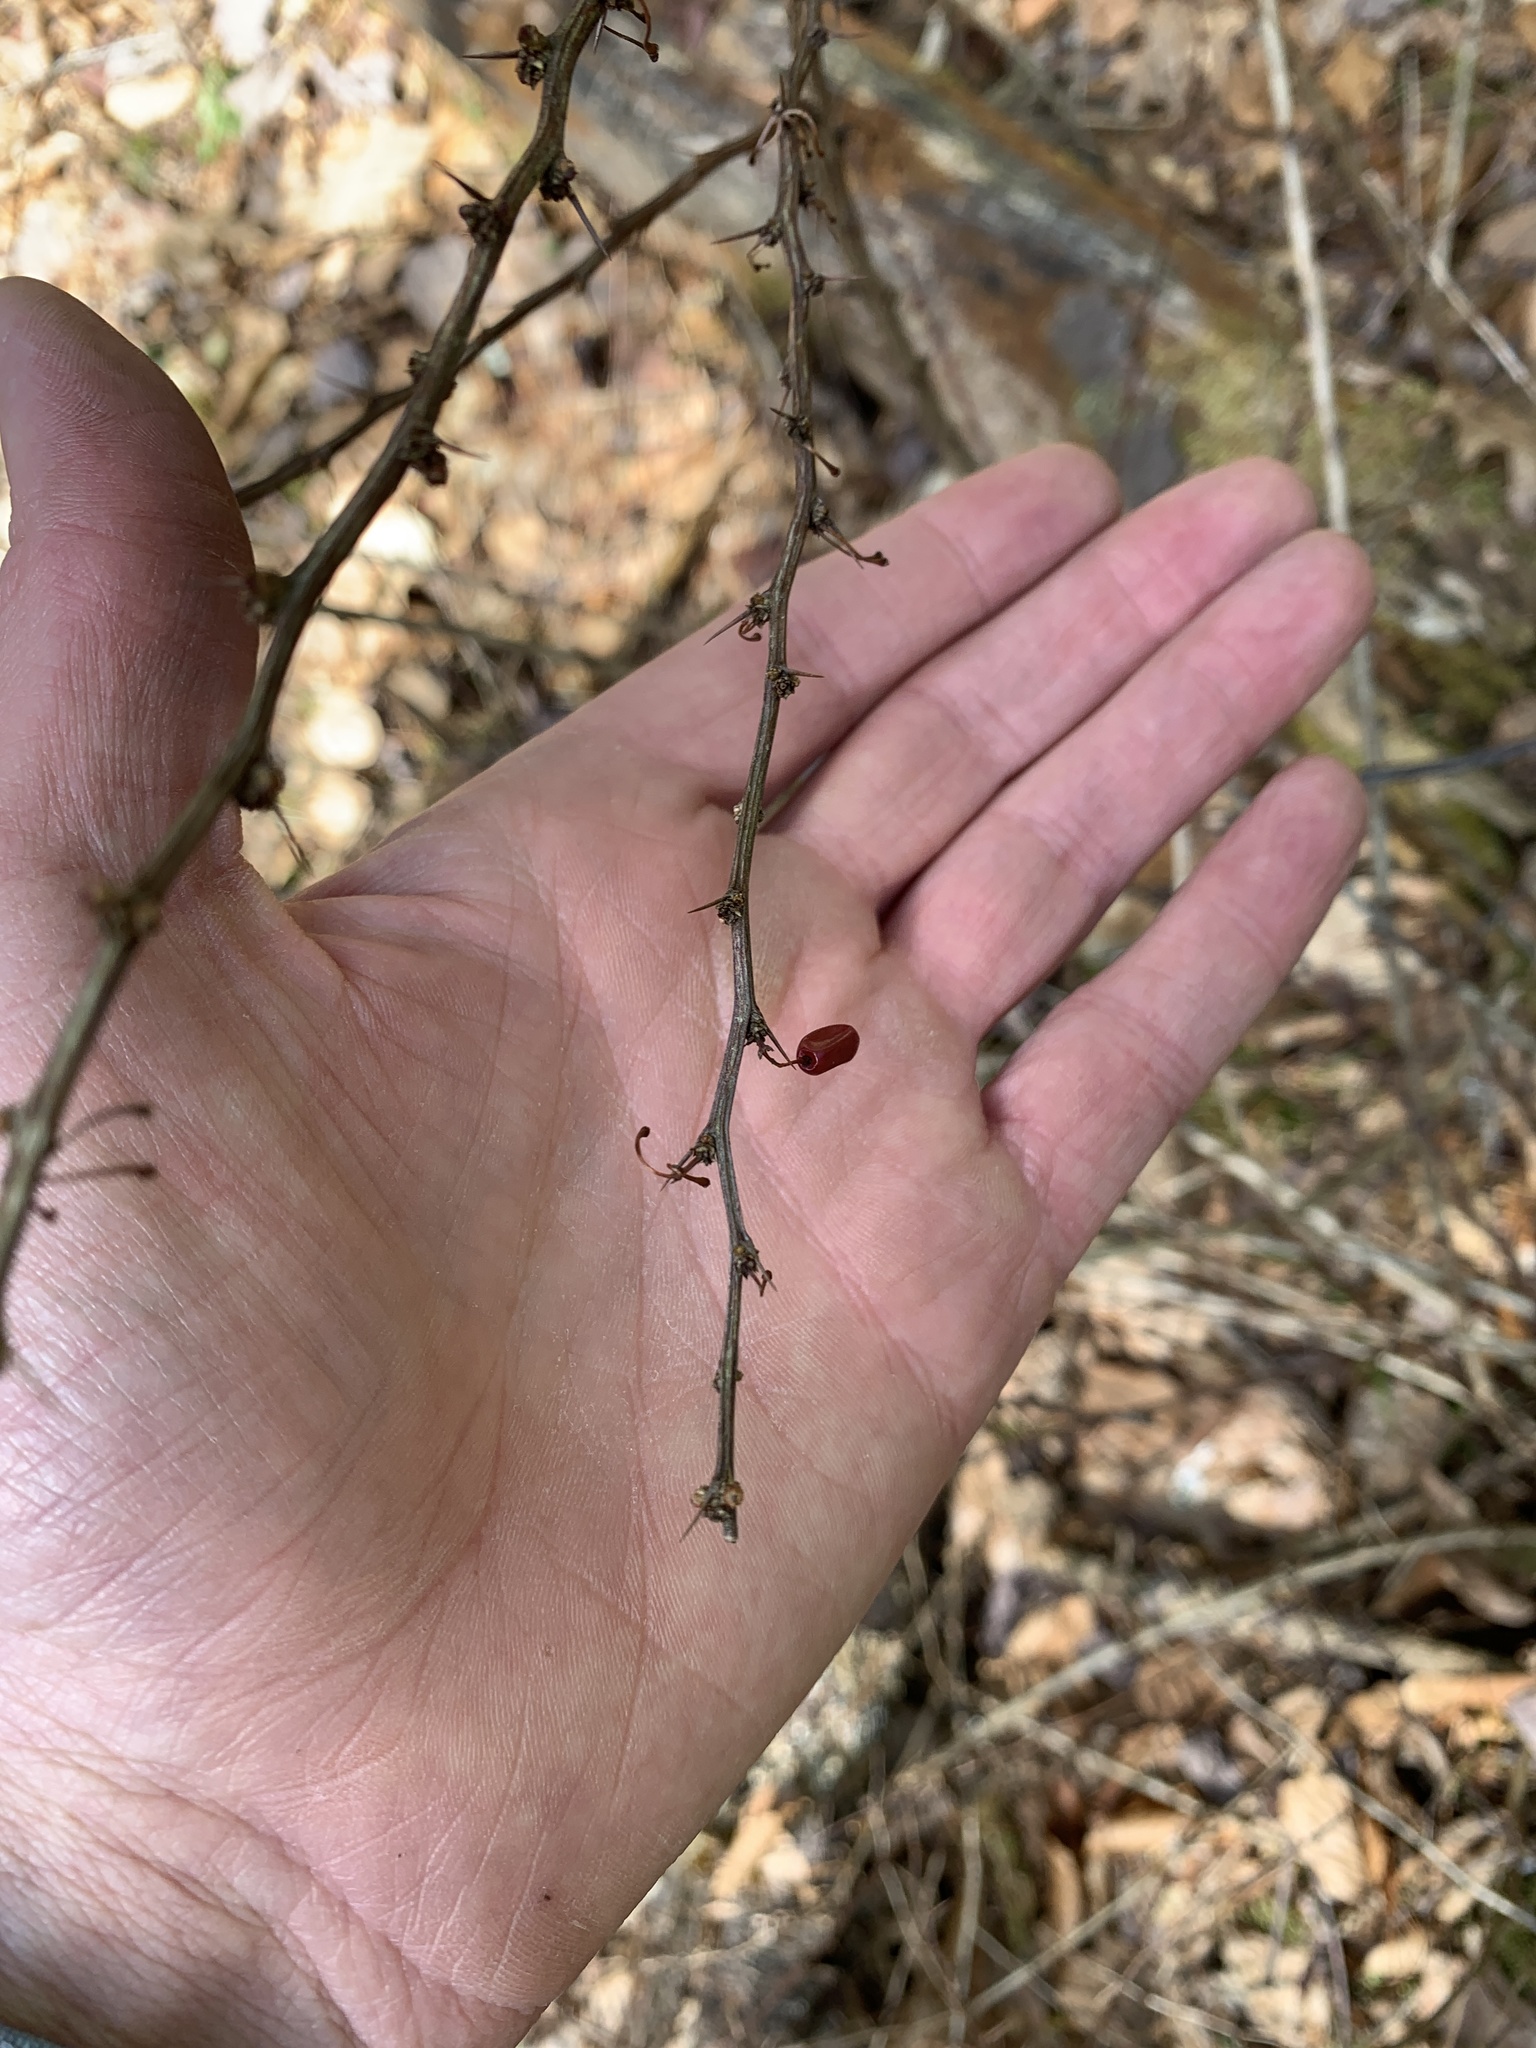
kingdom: Plantae
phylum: Tracheophyta
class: Magnoliopsida
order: Ranunculales
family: Berberidaceae
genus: Berberis
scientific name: Berberis thunbergii
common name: Japanese barberry
